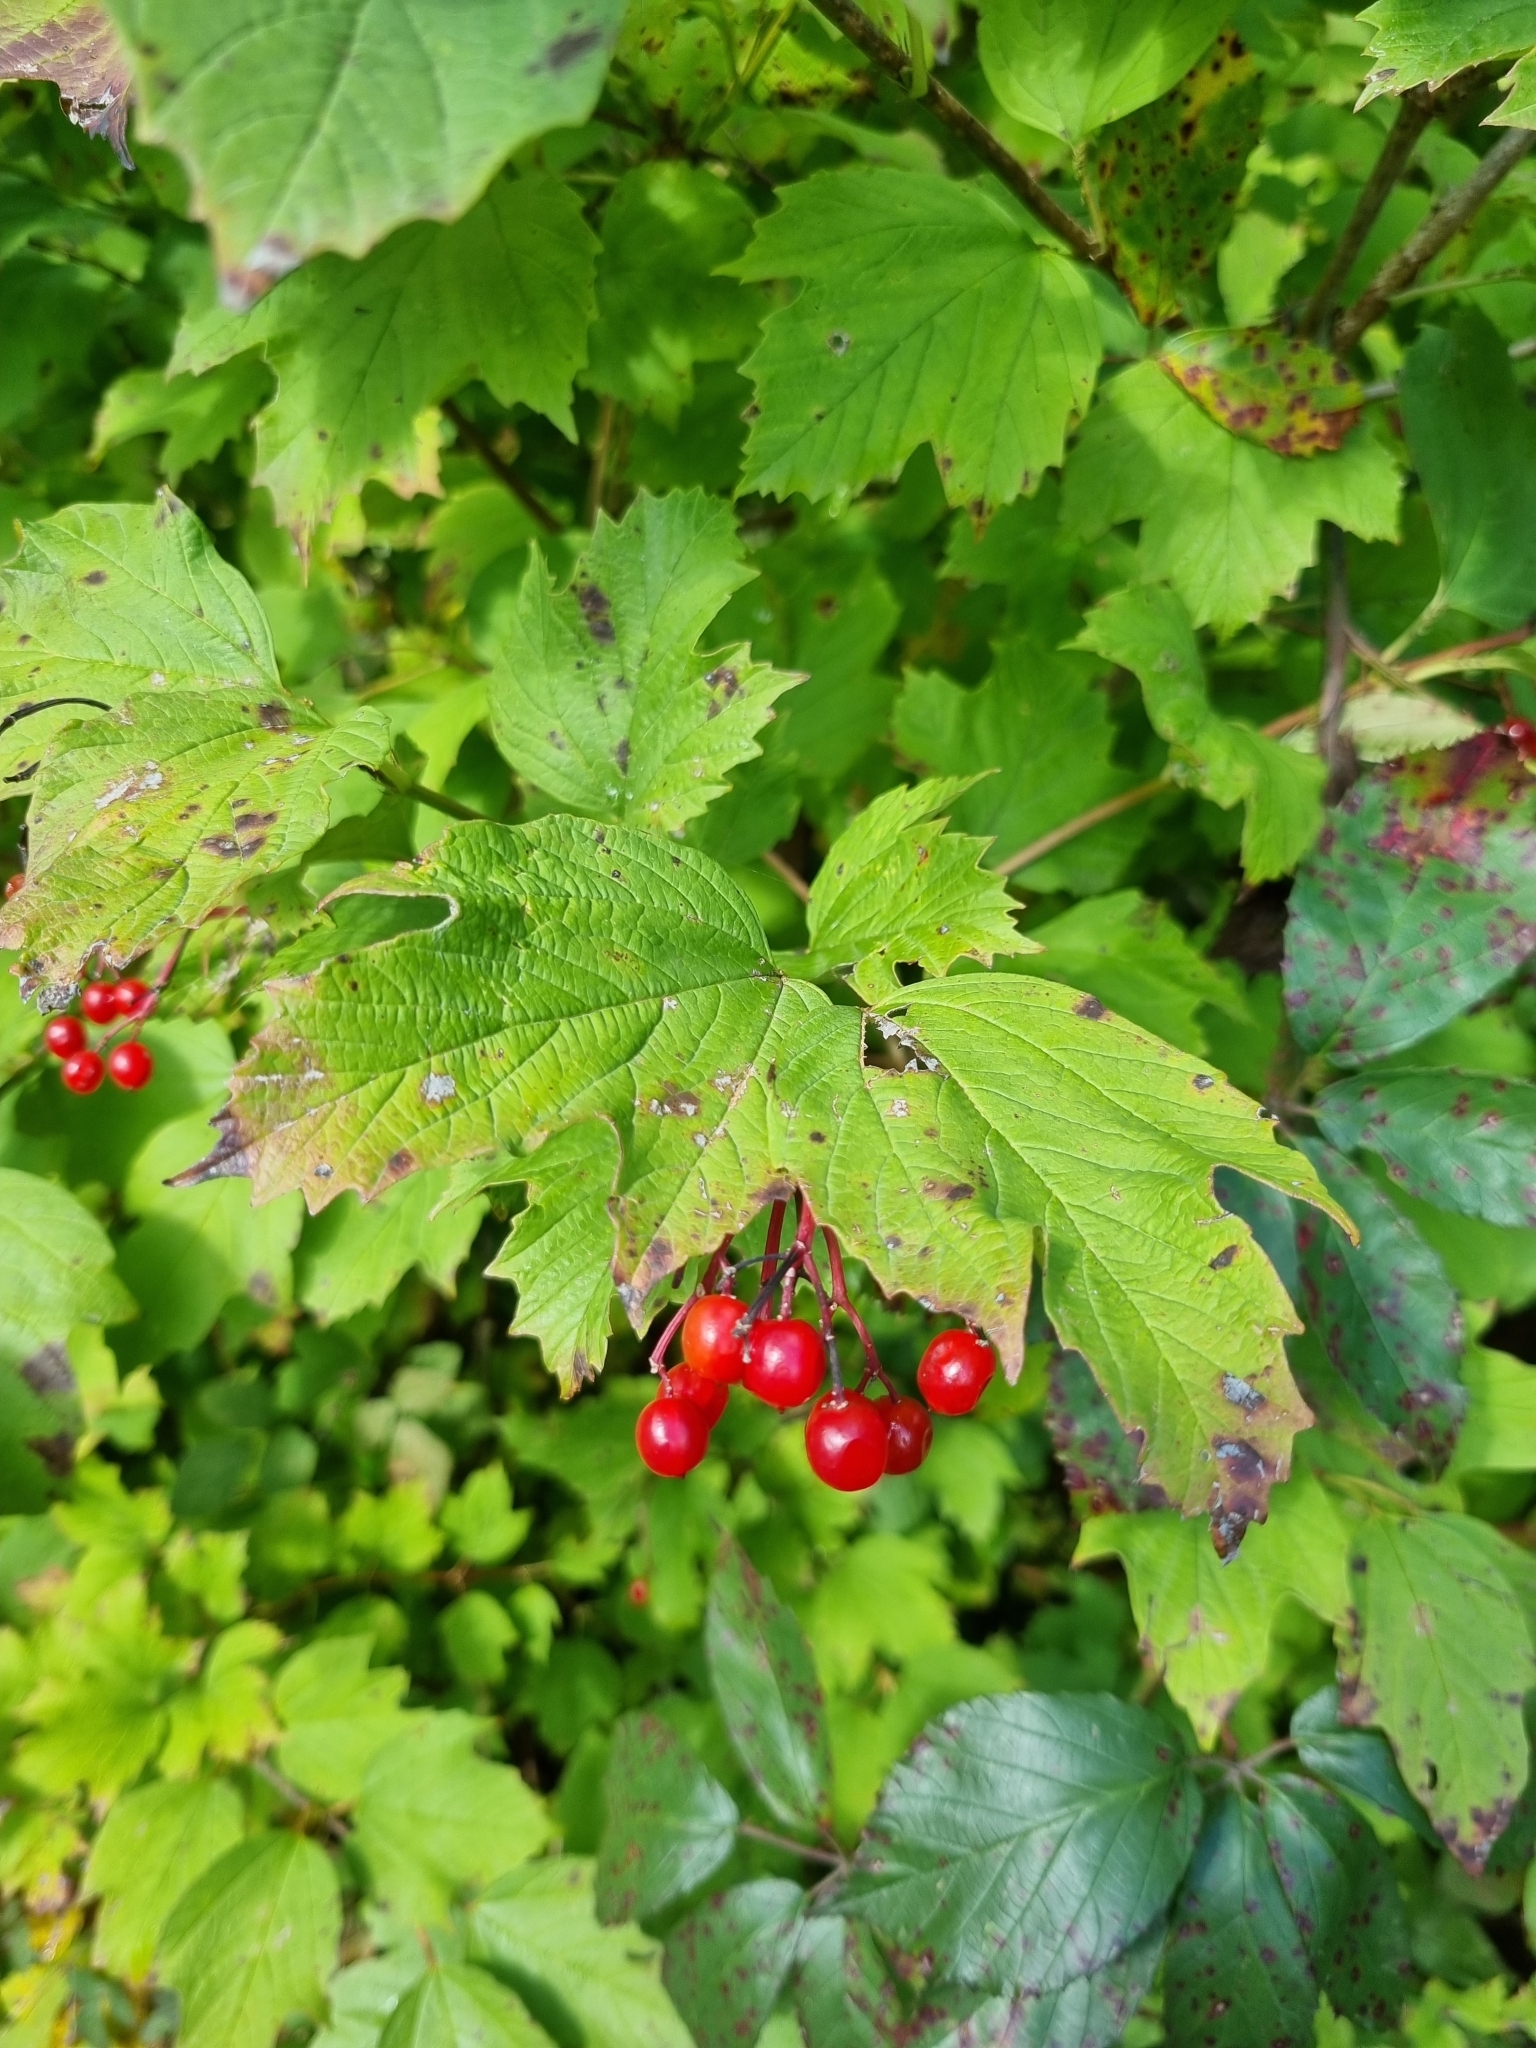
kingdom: Plantae
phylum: Tracheophyta
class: Magnoliopsida
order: Dipsacales
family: Viburnaceae
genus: Viburnum
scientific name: Viburnum opulus
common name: Guelder-rose
